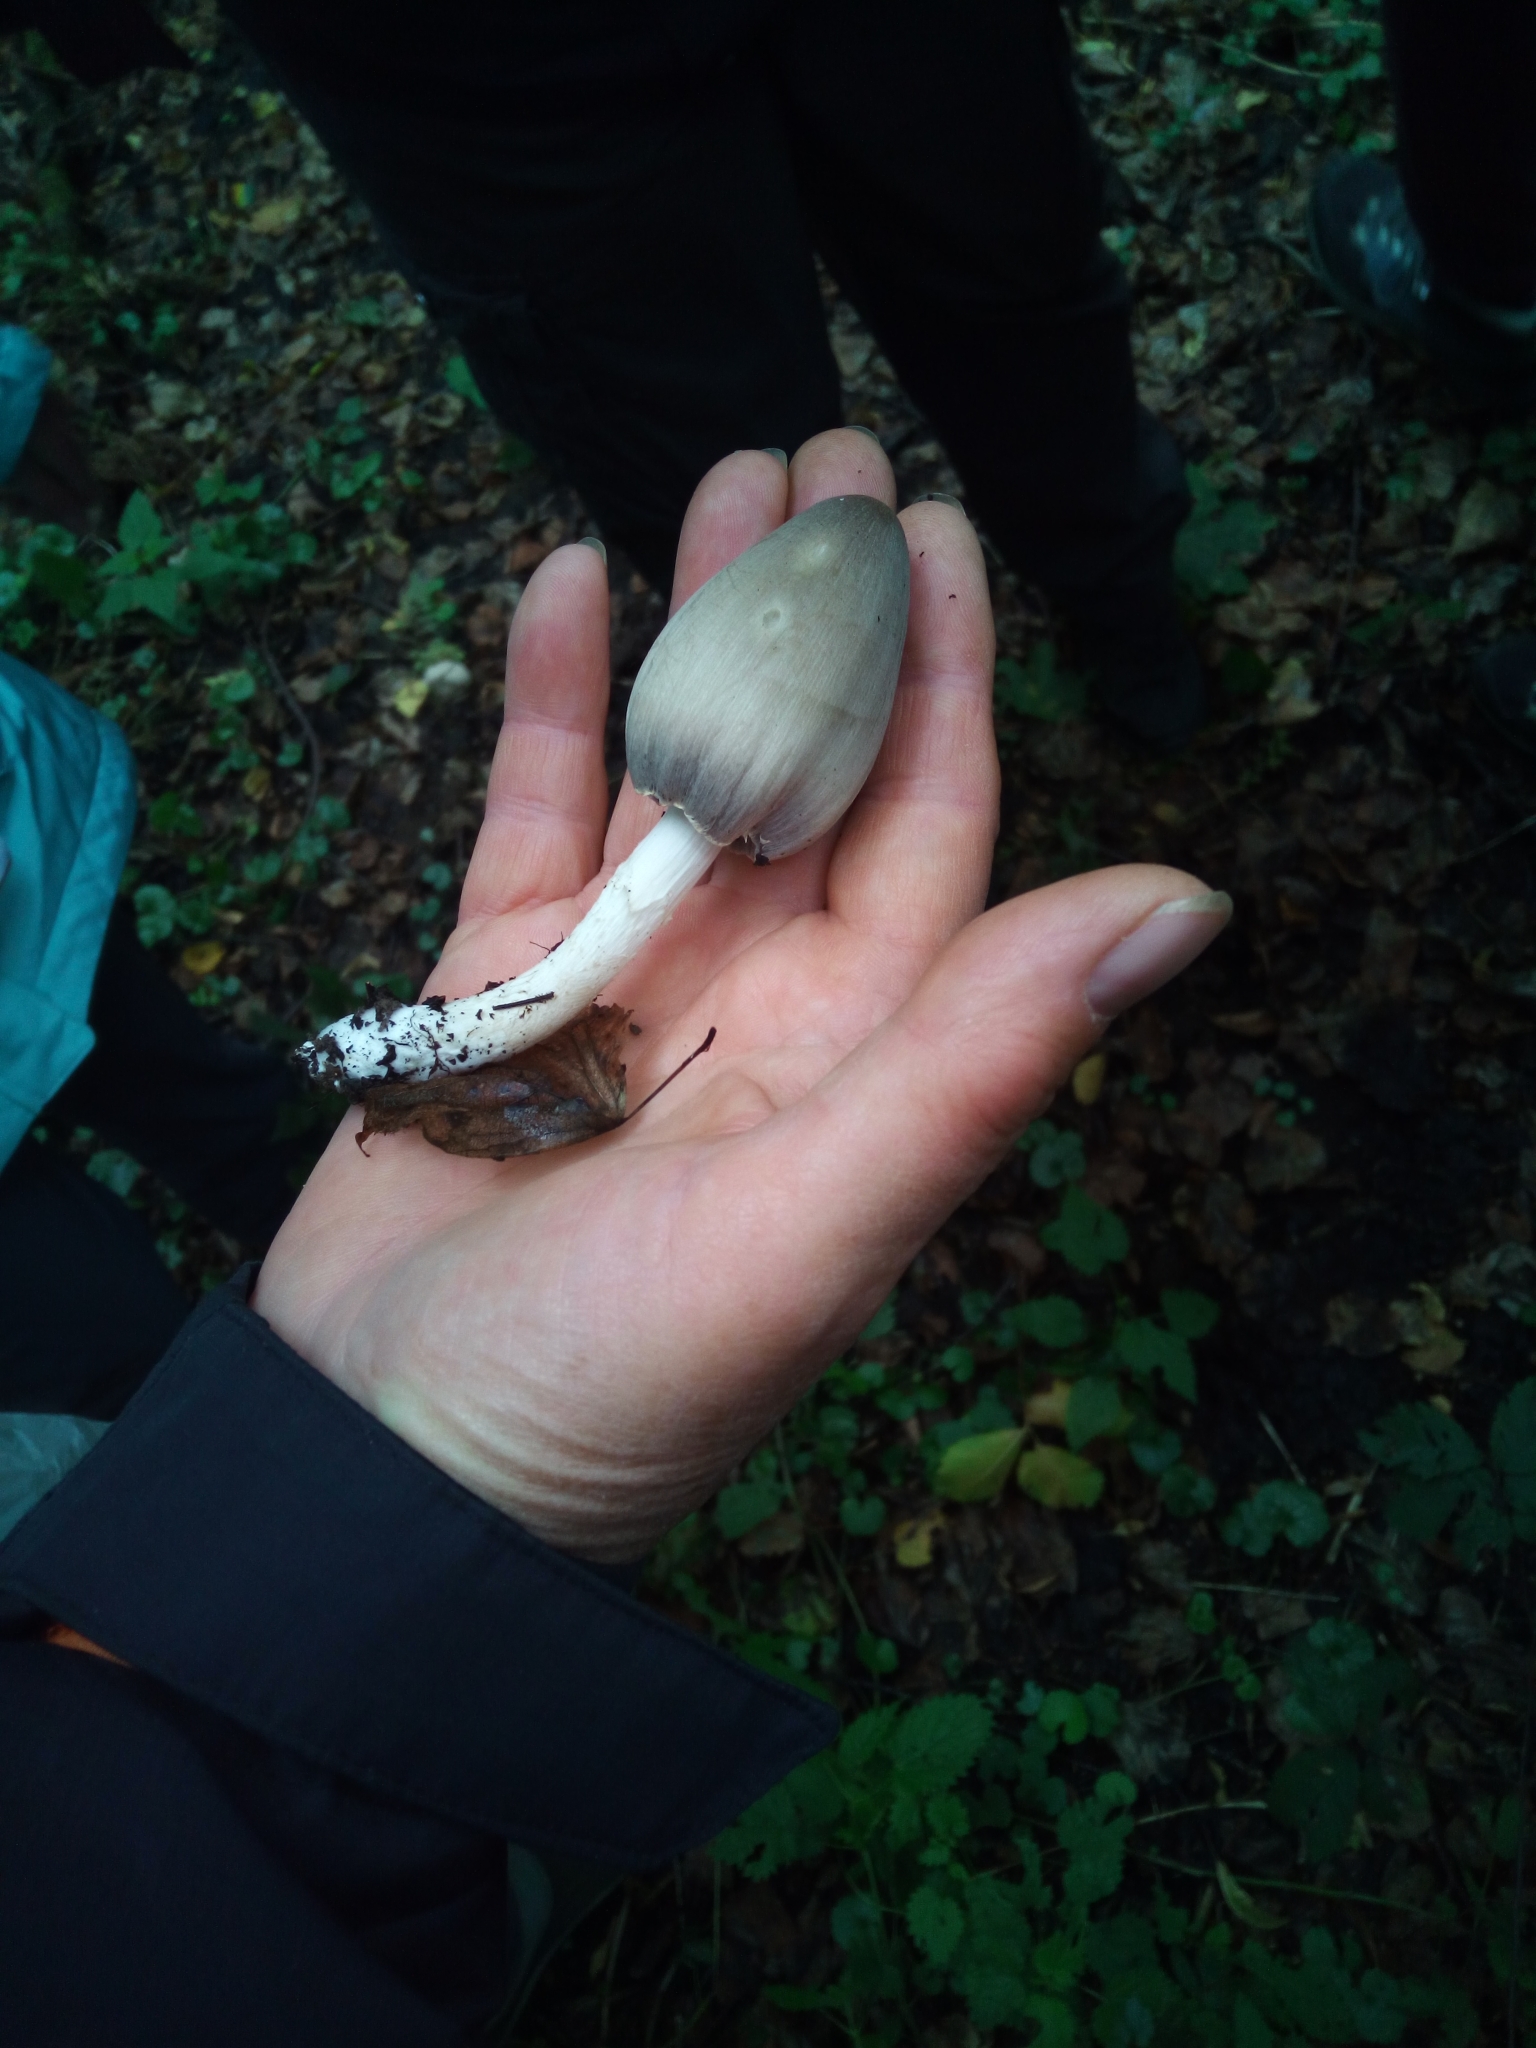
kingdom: Fungi
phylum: Basidiomycota
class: Agaricomycetes
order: Agaricales
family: Psathyrellaceae
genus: Coprinopsis
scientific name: Coprinopsis atramentaria
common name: Common ink-cap
